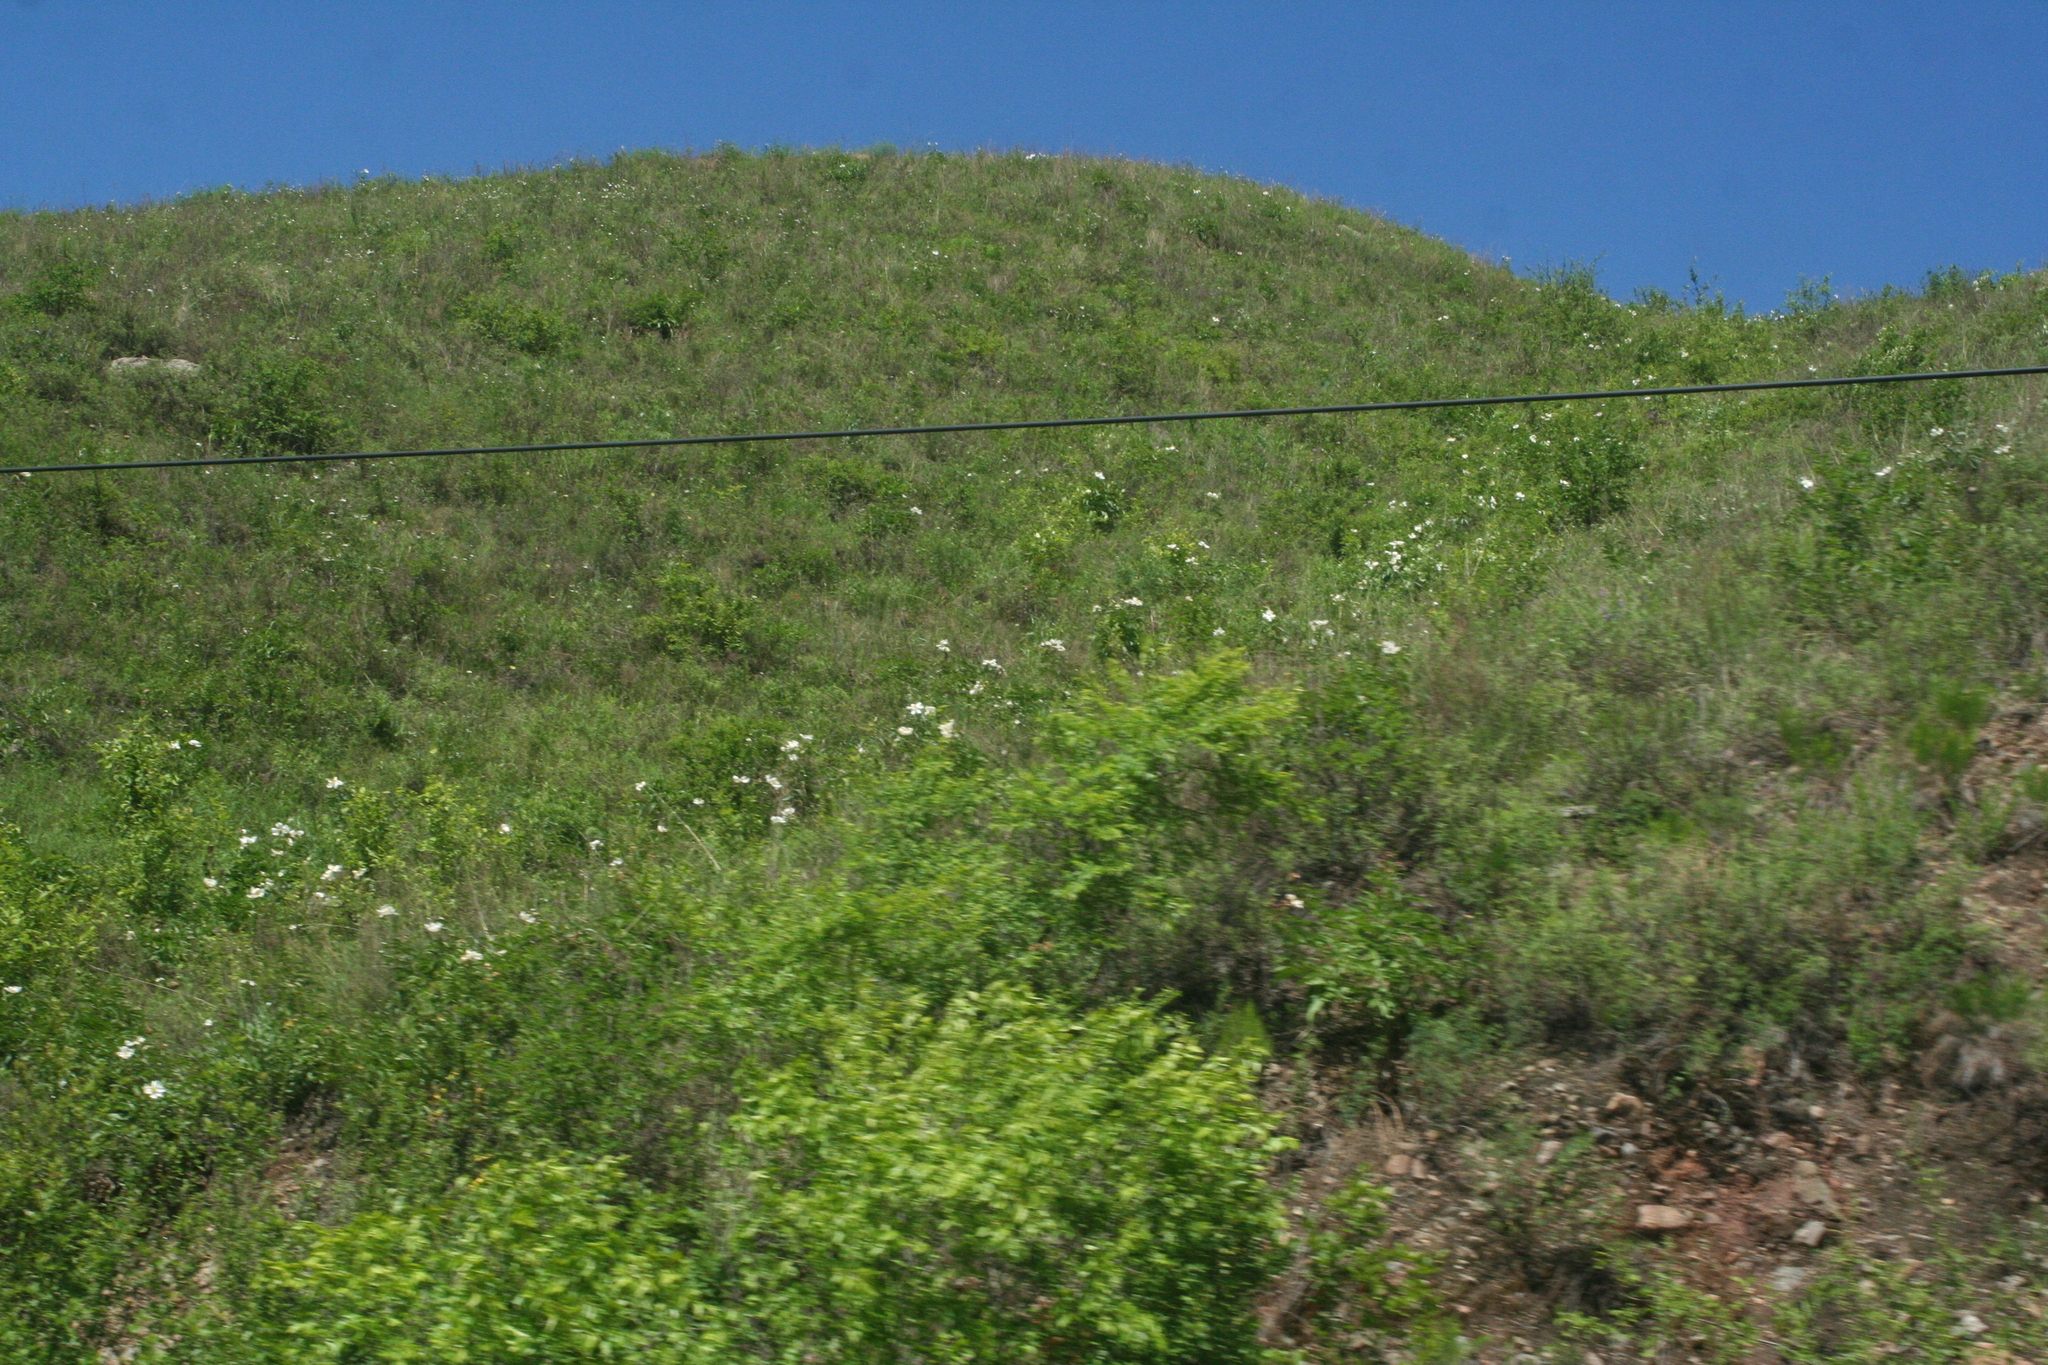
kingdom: Plantae
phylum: Tracheophyta
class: Magnoliopsida
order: Saxifragales
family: Paeoniaceae
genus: Paeonia
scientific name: Paeonia lactiflora
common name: Chinese peony
